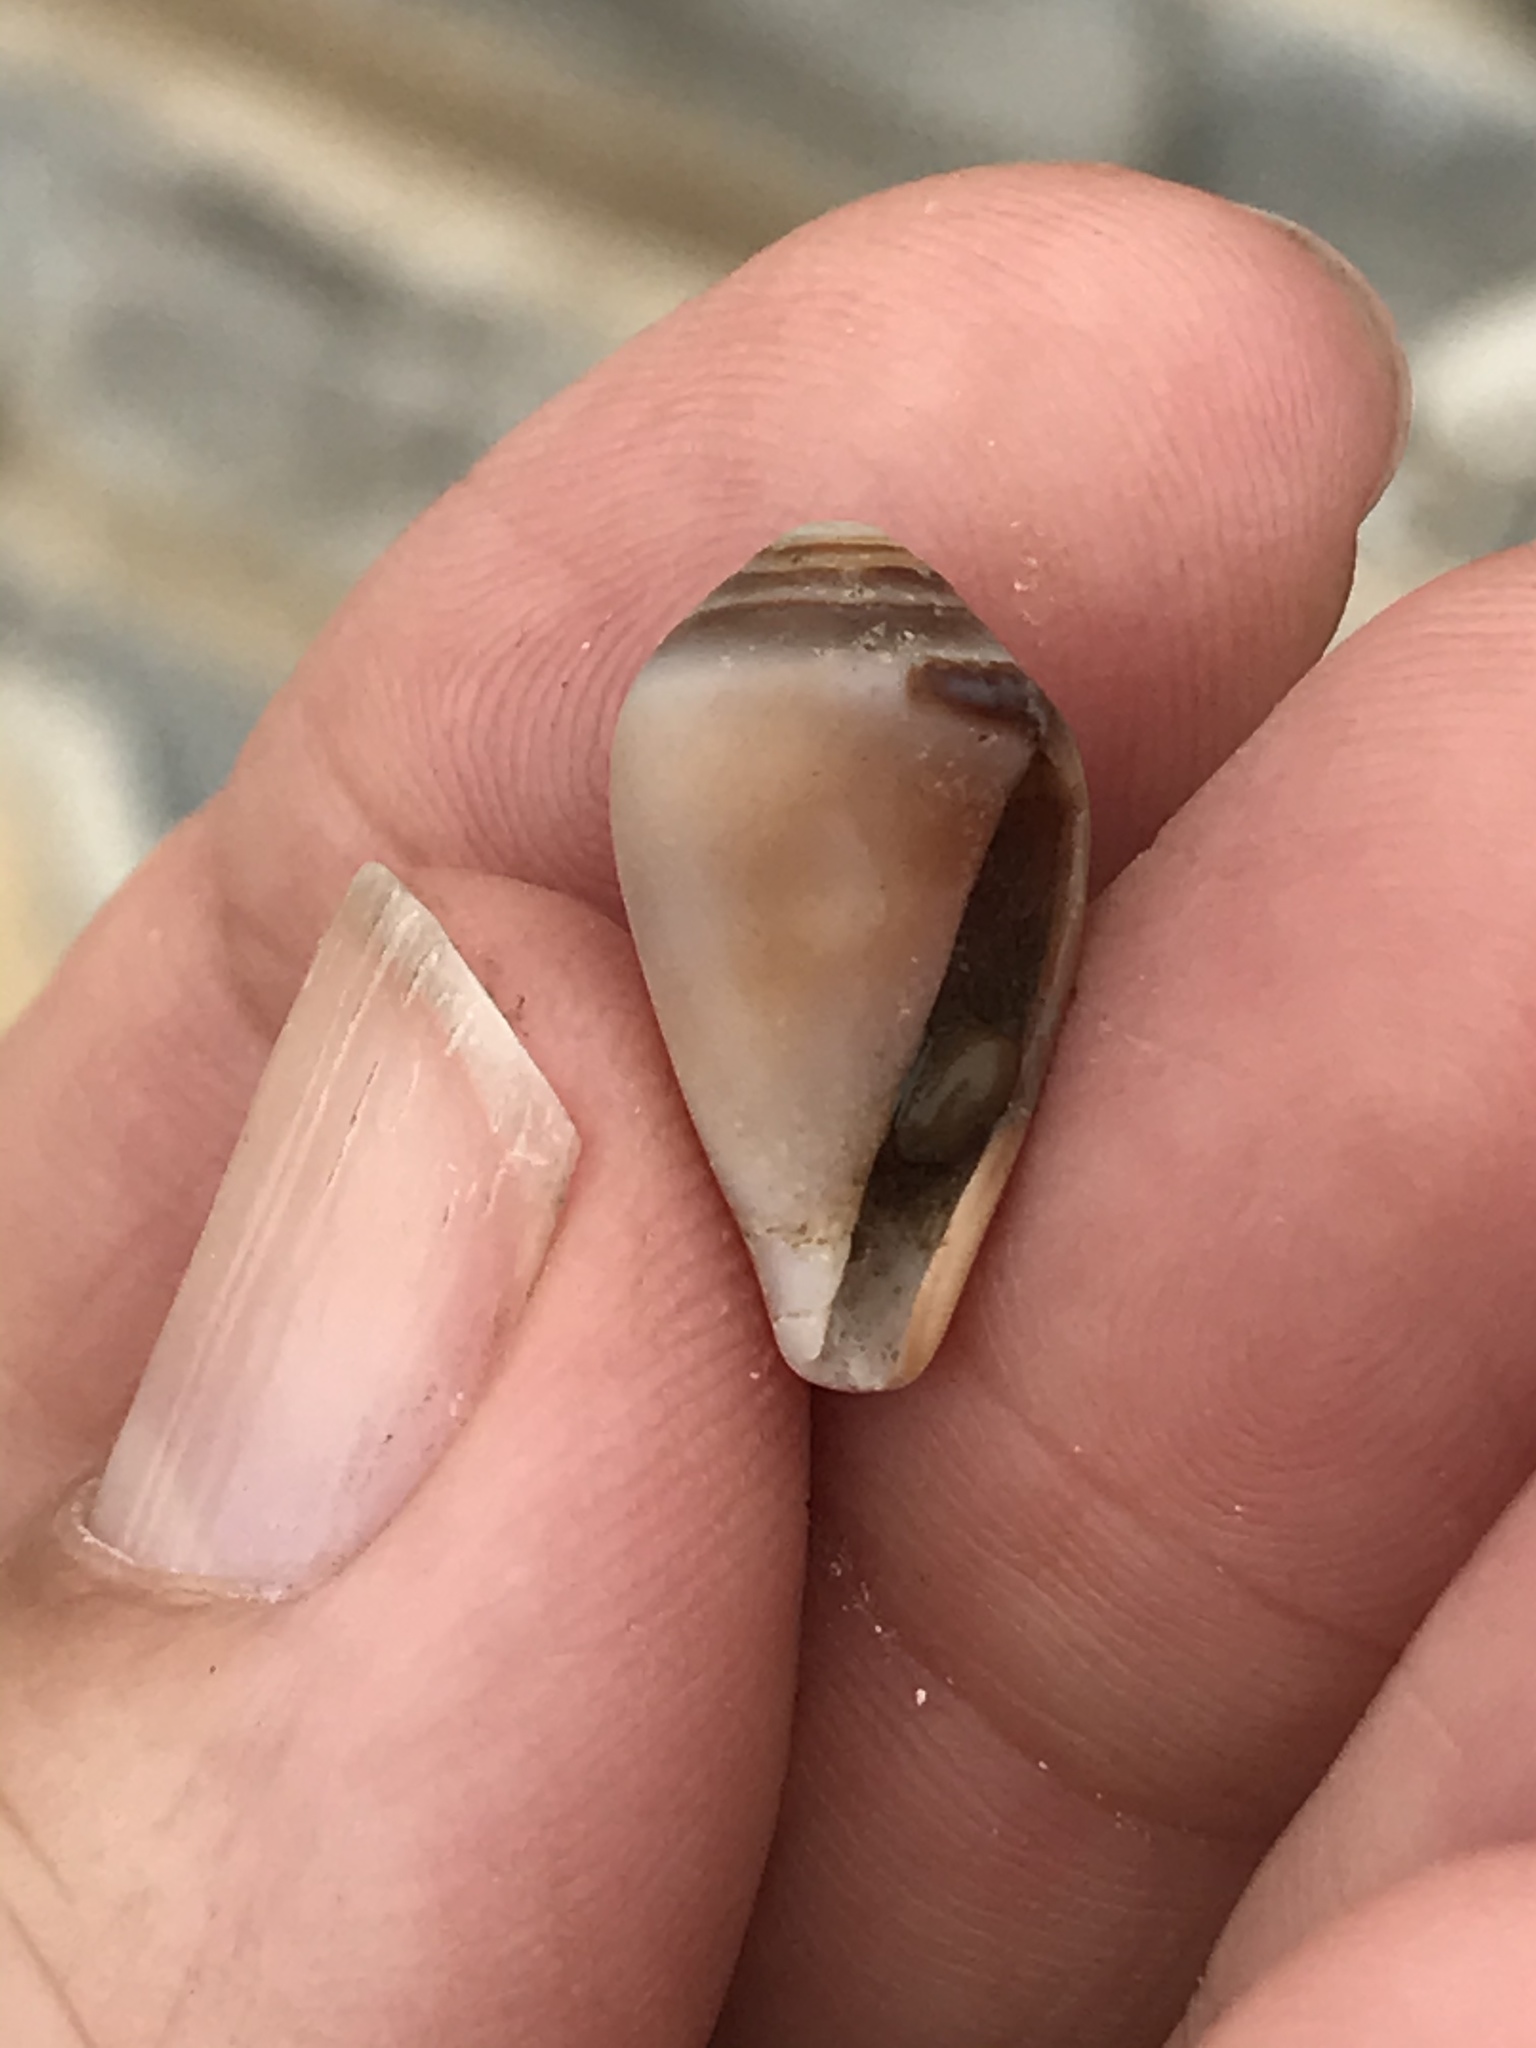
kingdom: Animalia
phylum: Mollusca
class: Gastropoda
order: Neogastropoda
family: Conidae
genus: Californiconus
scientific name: Californiconus californicus
